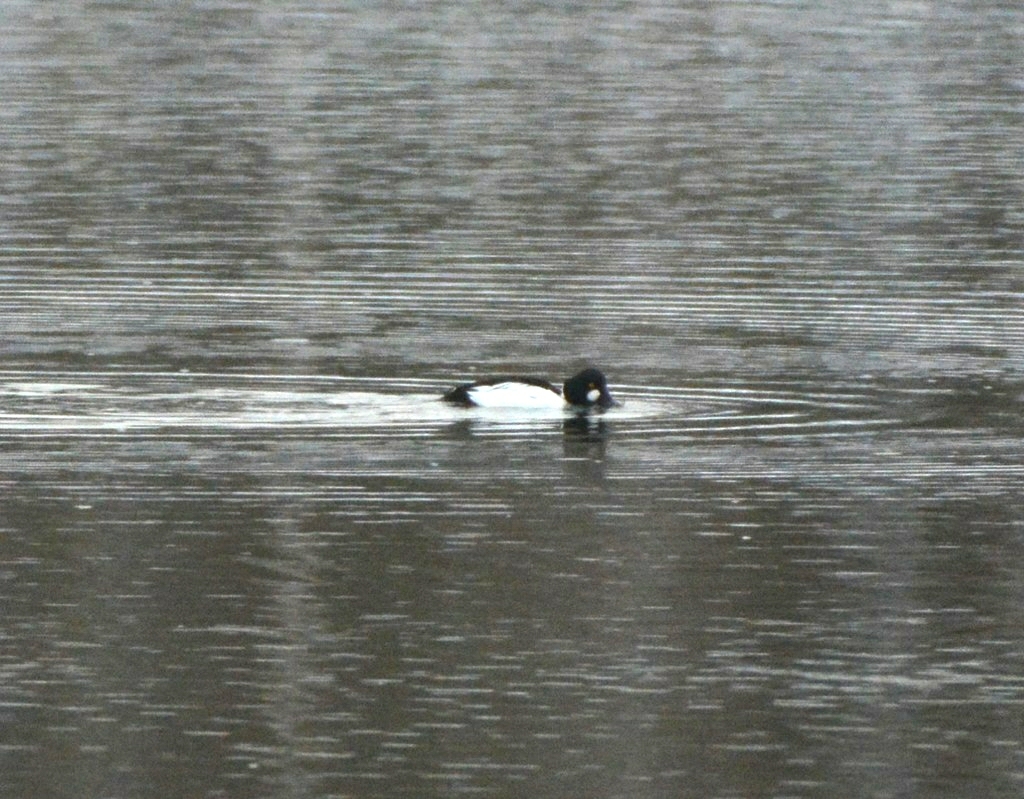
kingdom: Animalia
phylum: Chordata
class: Aves
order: Anseriformes
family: Anatidae
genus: Bucephala
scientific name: Bucephala clangula
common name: Common goldeneye
